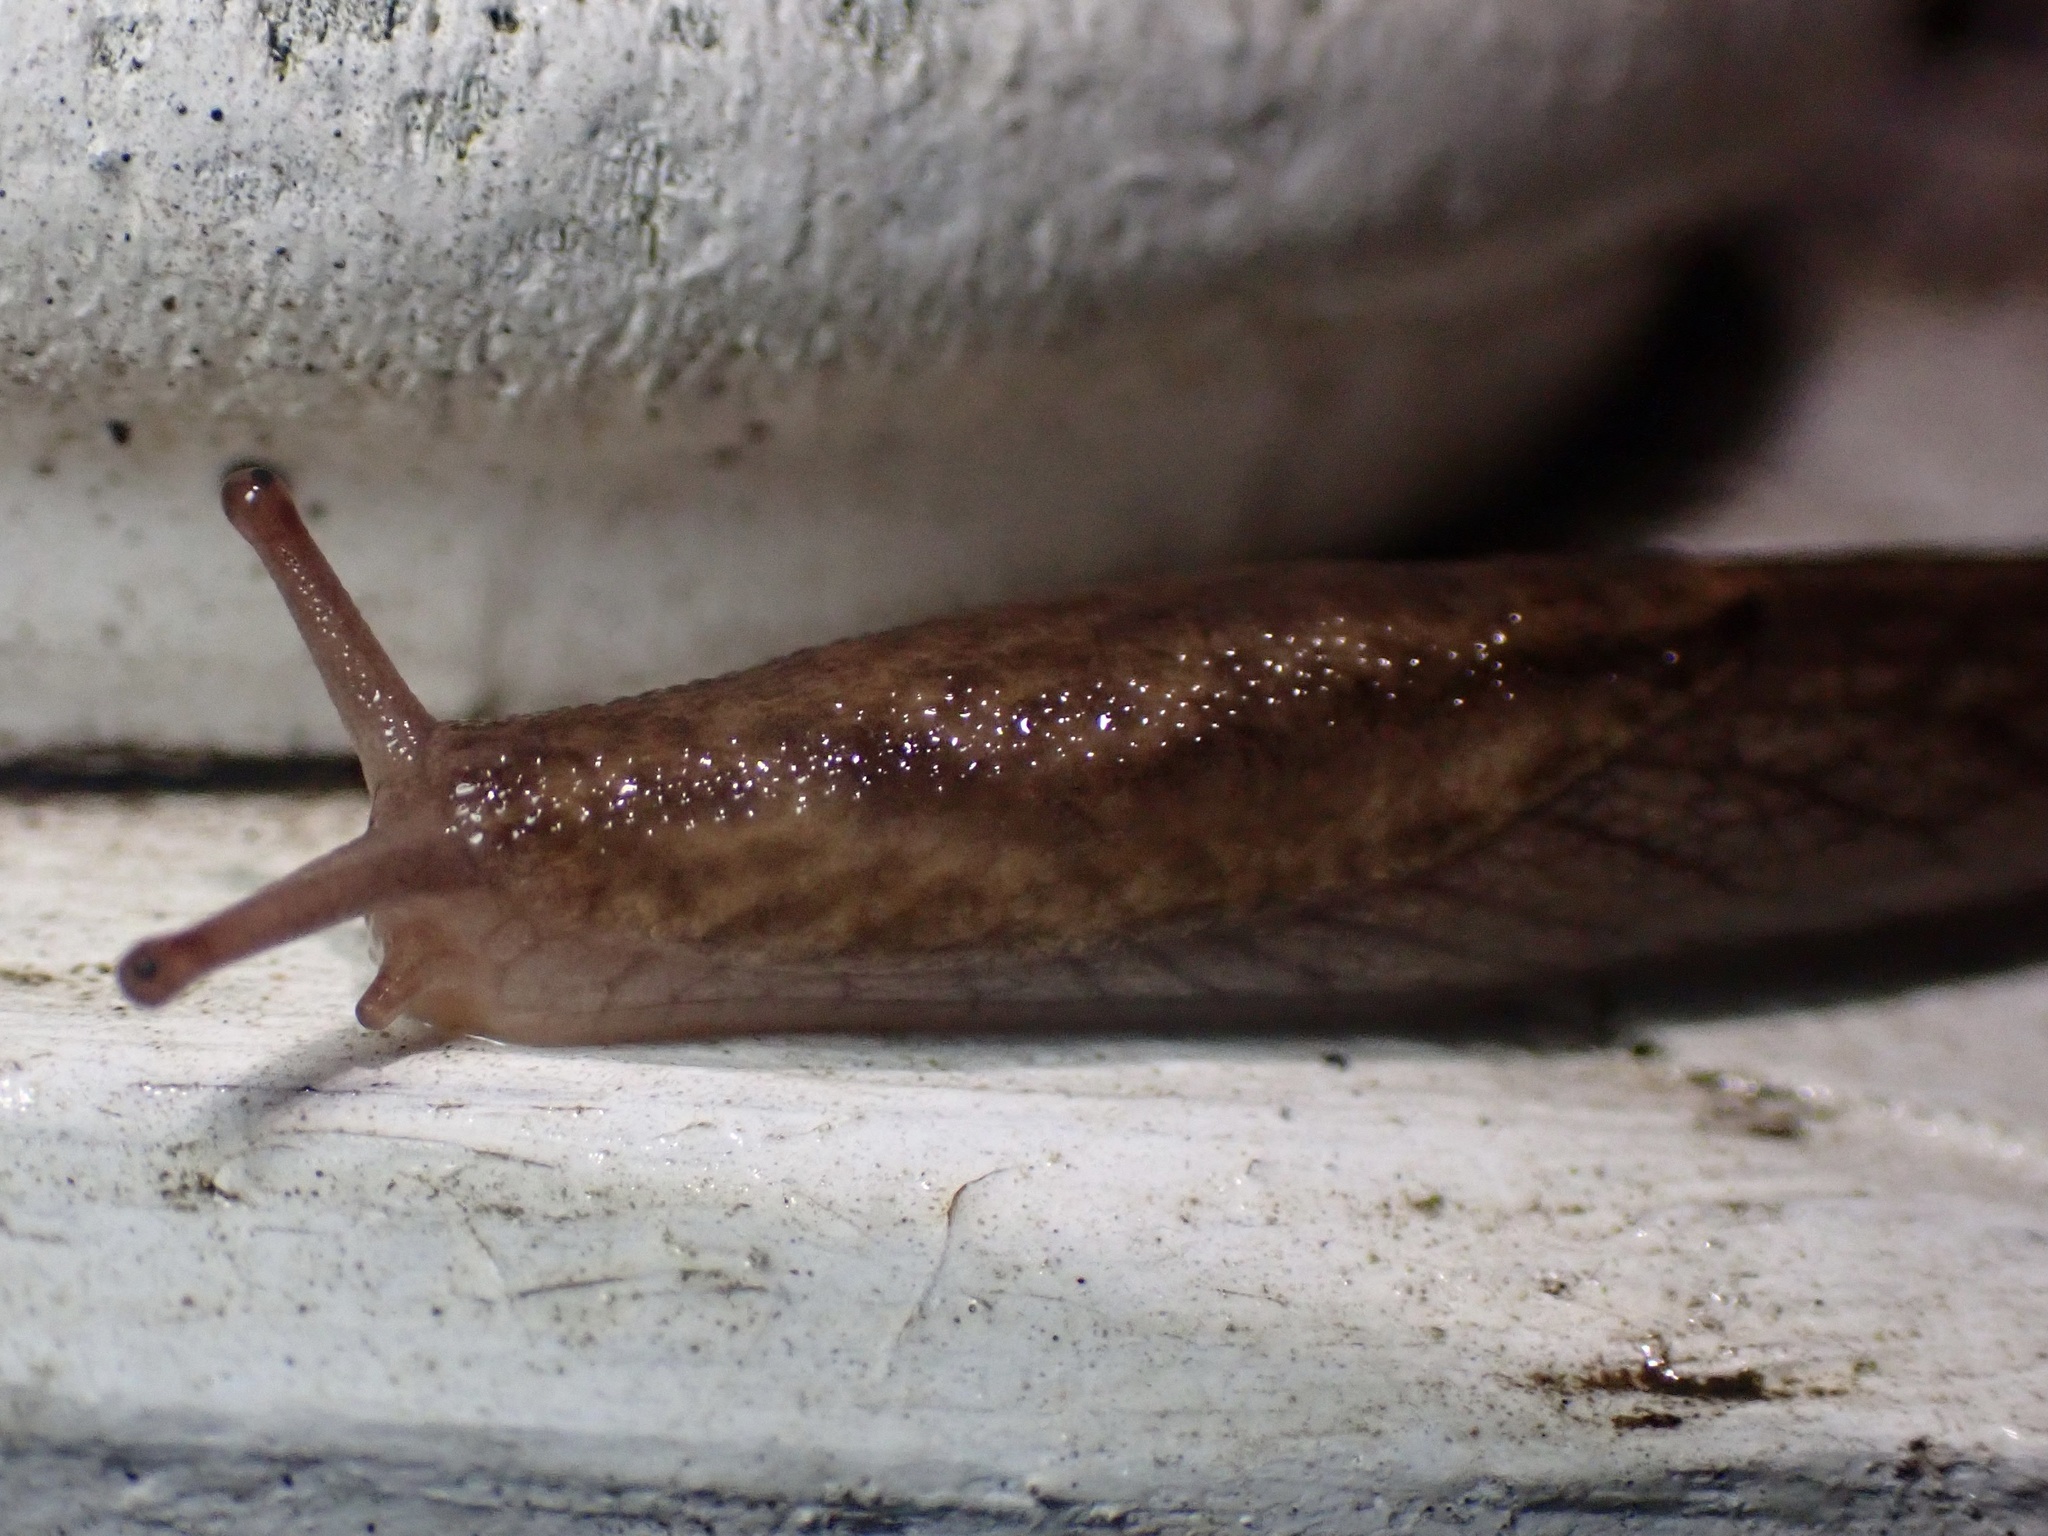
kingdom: Animalia
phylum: Mollusca
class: Gastropoda
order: Stylommatophora
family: Ariolimacidae
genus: Prophysaon
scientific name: Prophysaon andersonii
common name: Reticulate taildropper
